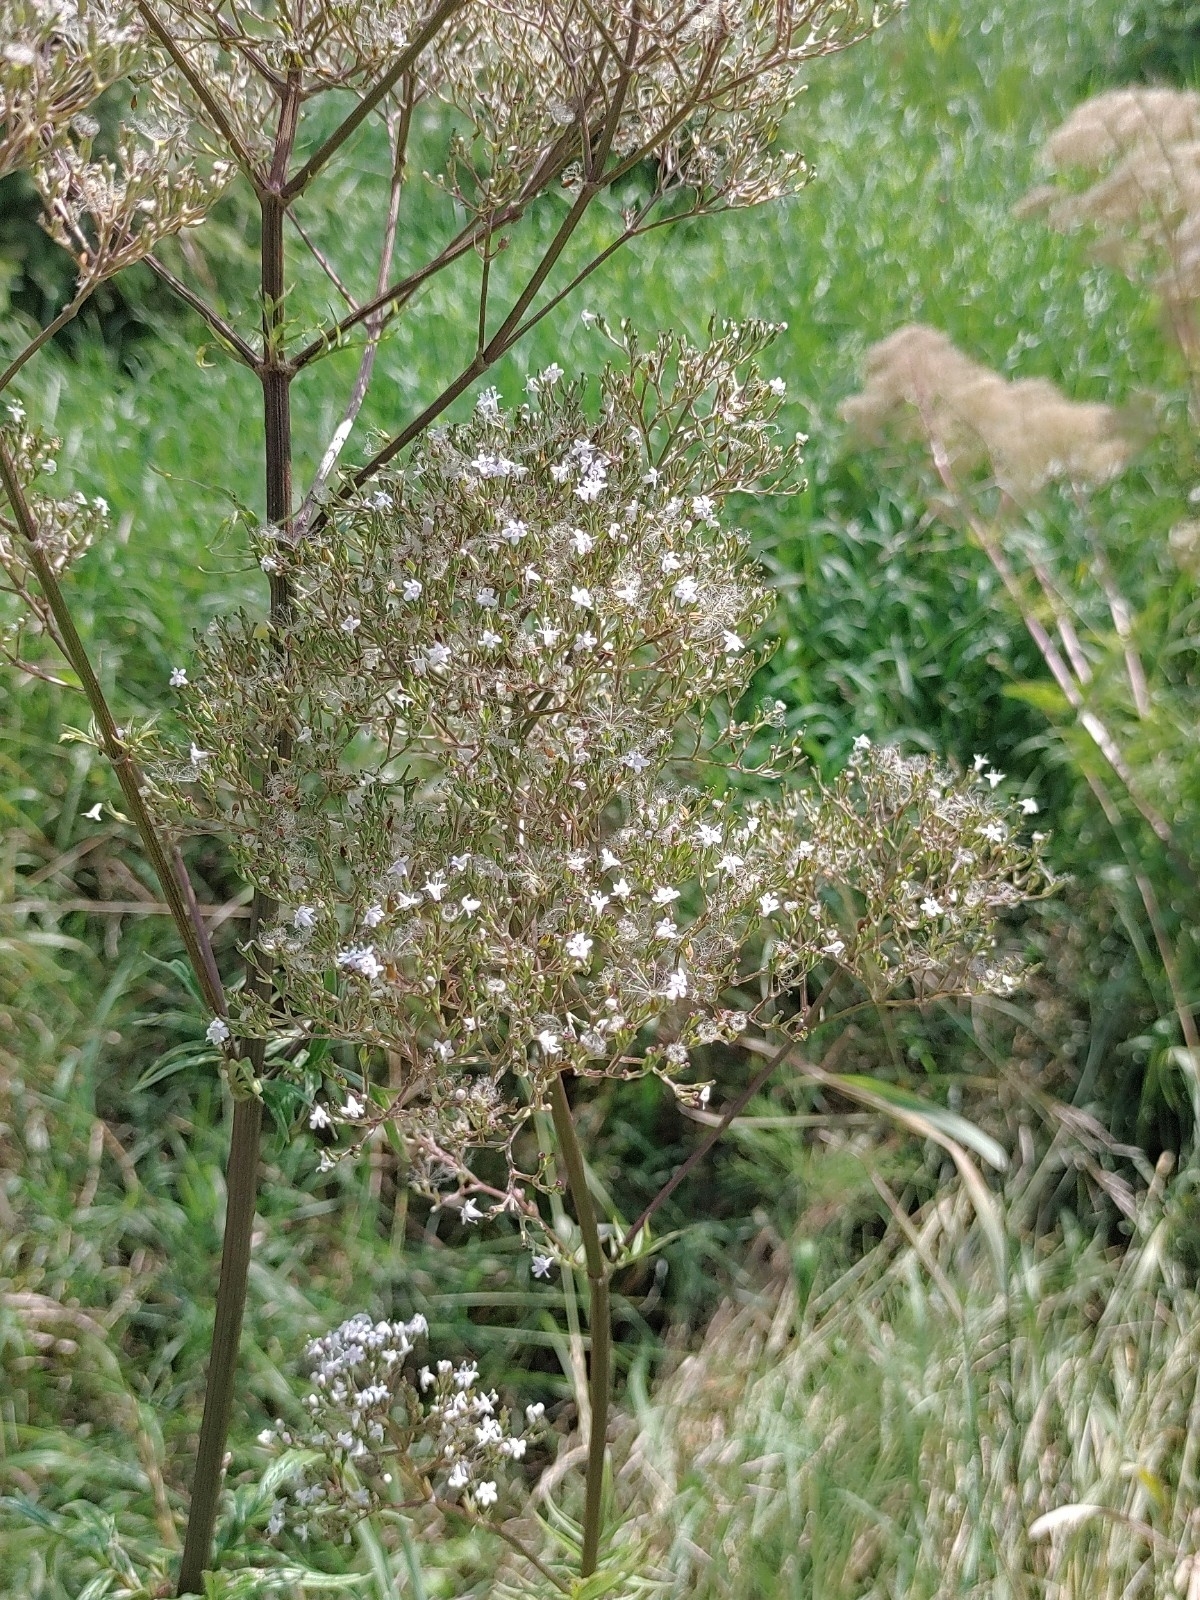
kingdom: Plantae
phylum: Tracheophyta
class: Magnoliopsida
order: Dipsacales
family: Caprifoliaceae
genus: Valeriana
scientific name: Valeriana officinalis
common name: Common valerian
